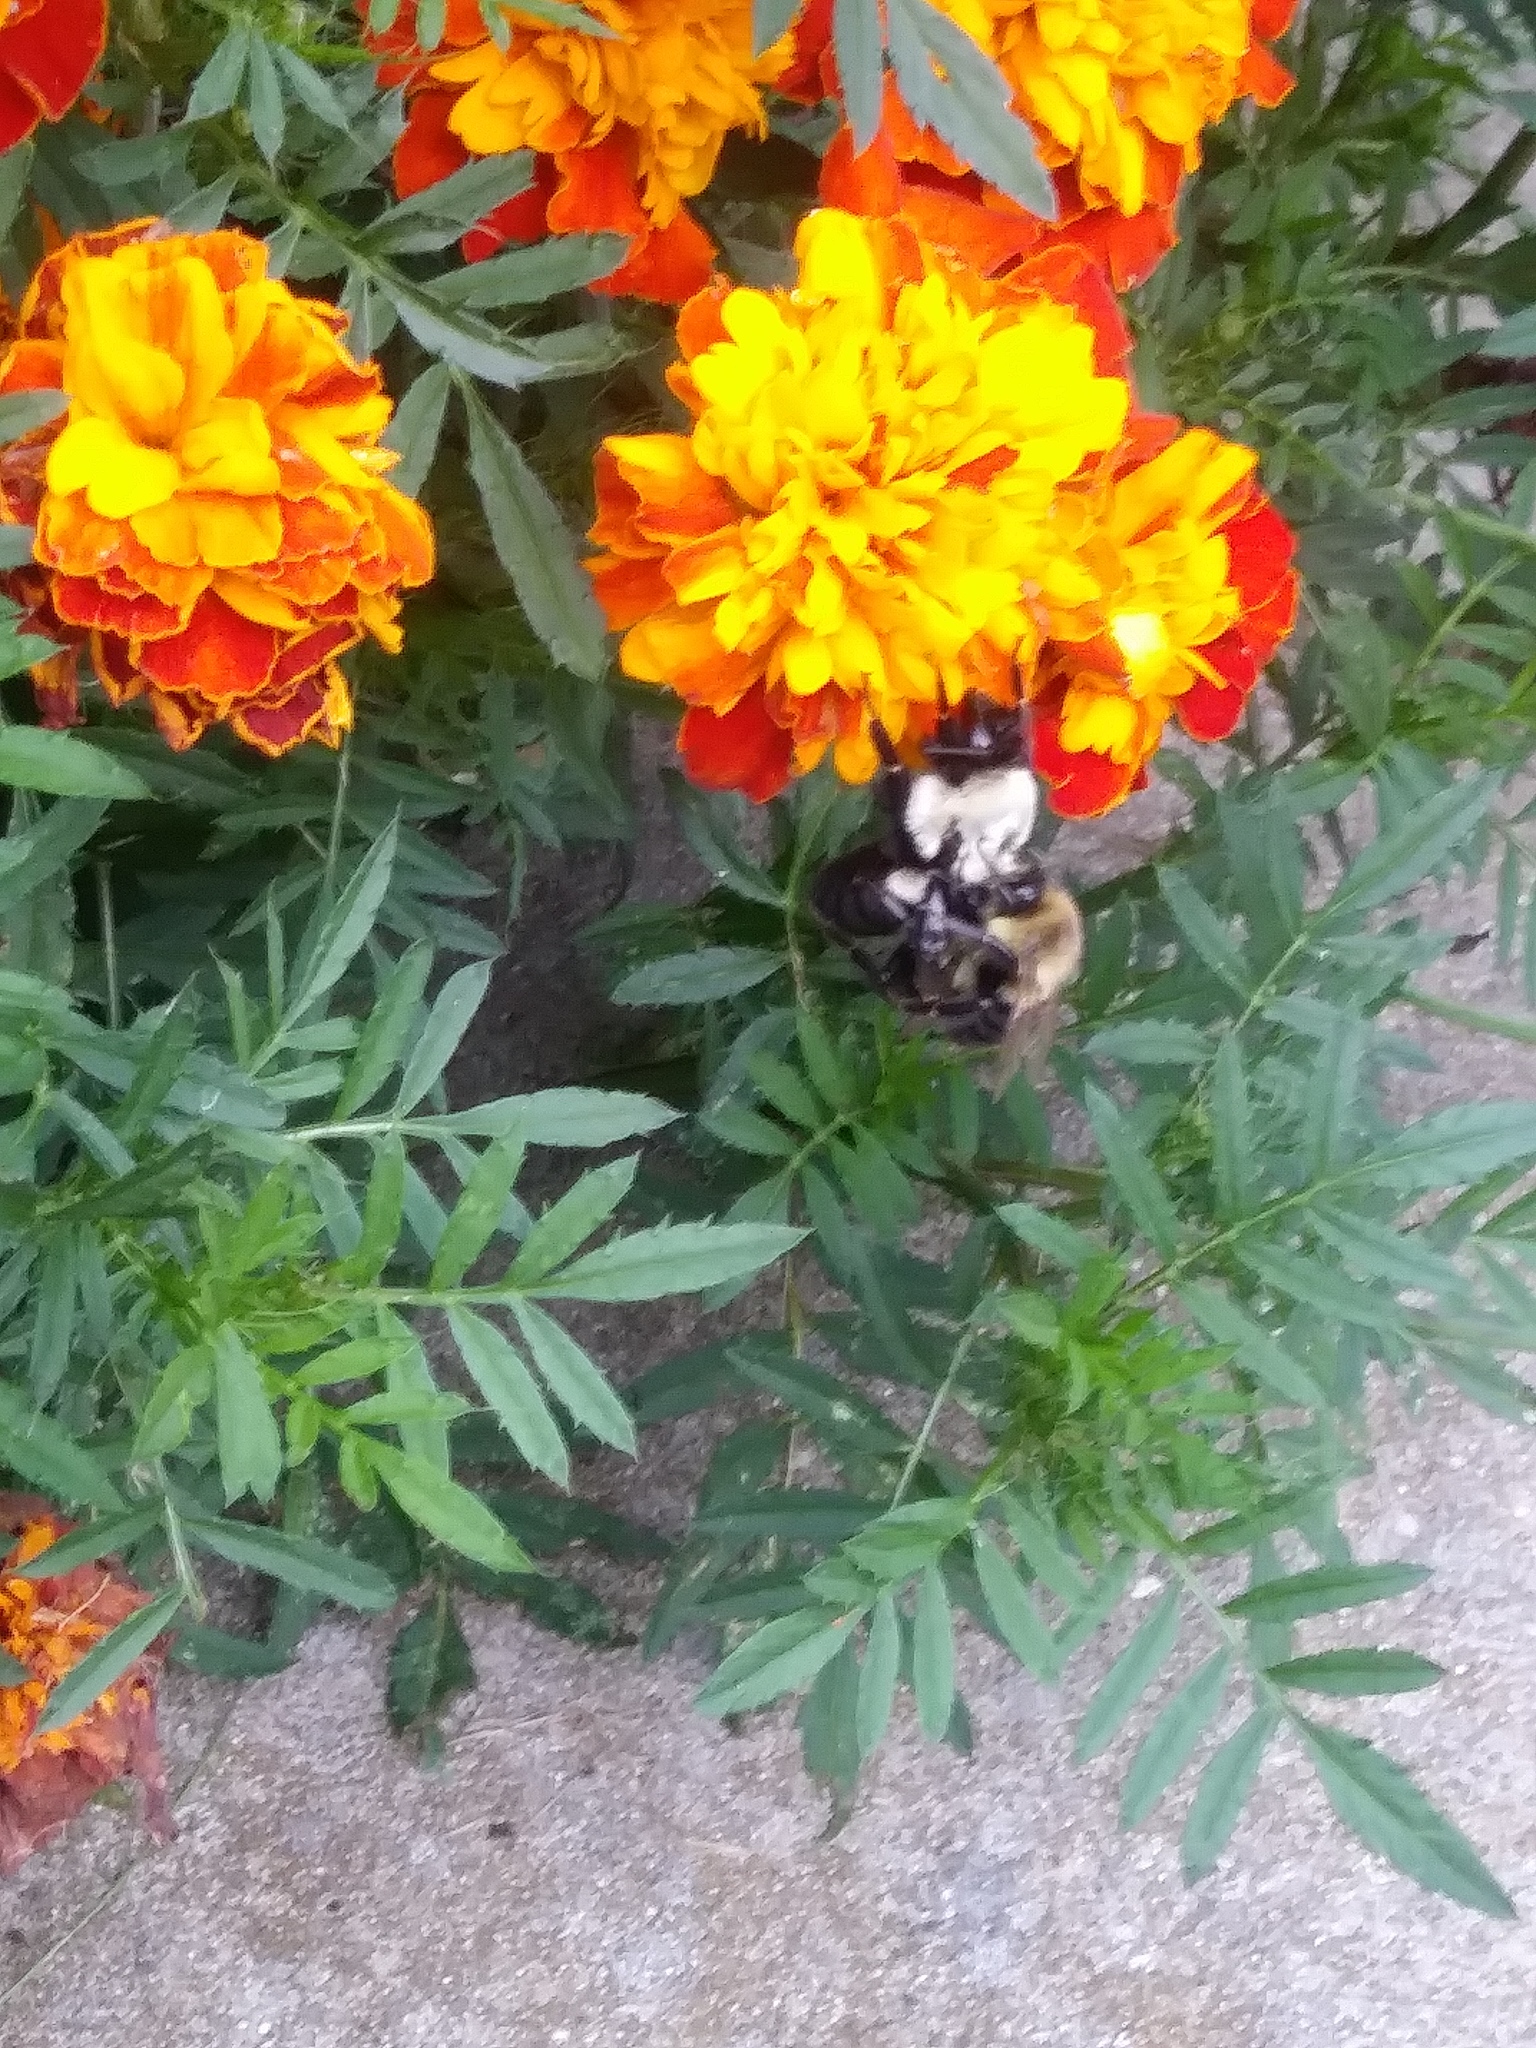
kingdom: Animalia
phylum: Arthropoda
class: Insecta
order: Hymenoptera
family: Apidae
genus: Bombus
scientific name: Bombus impatiens
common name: Common eastern bumble bee
